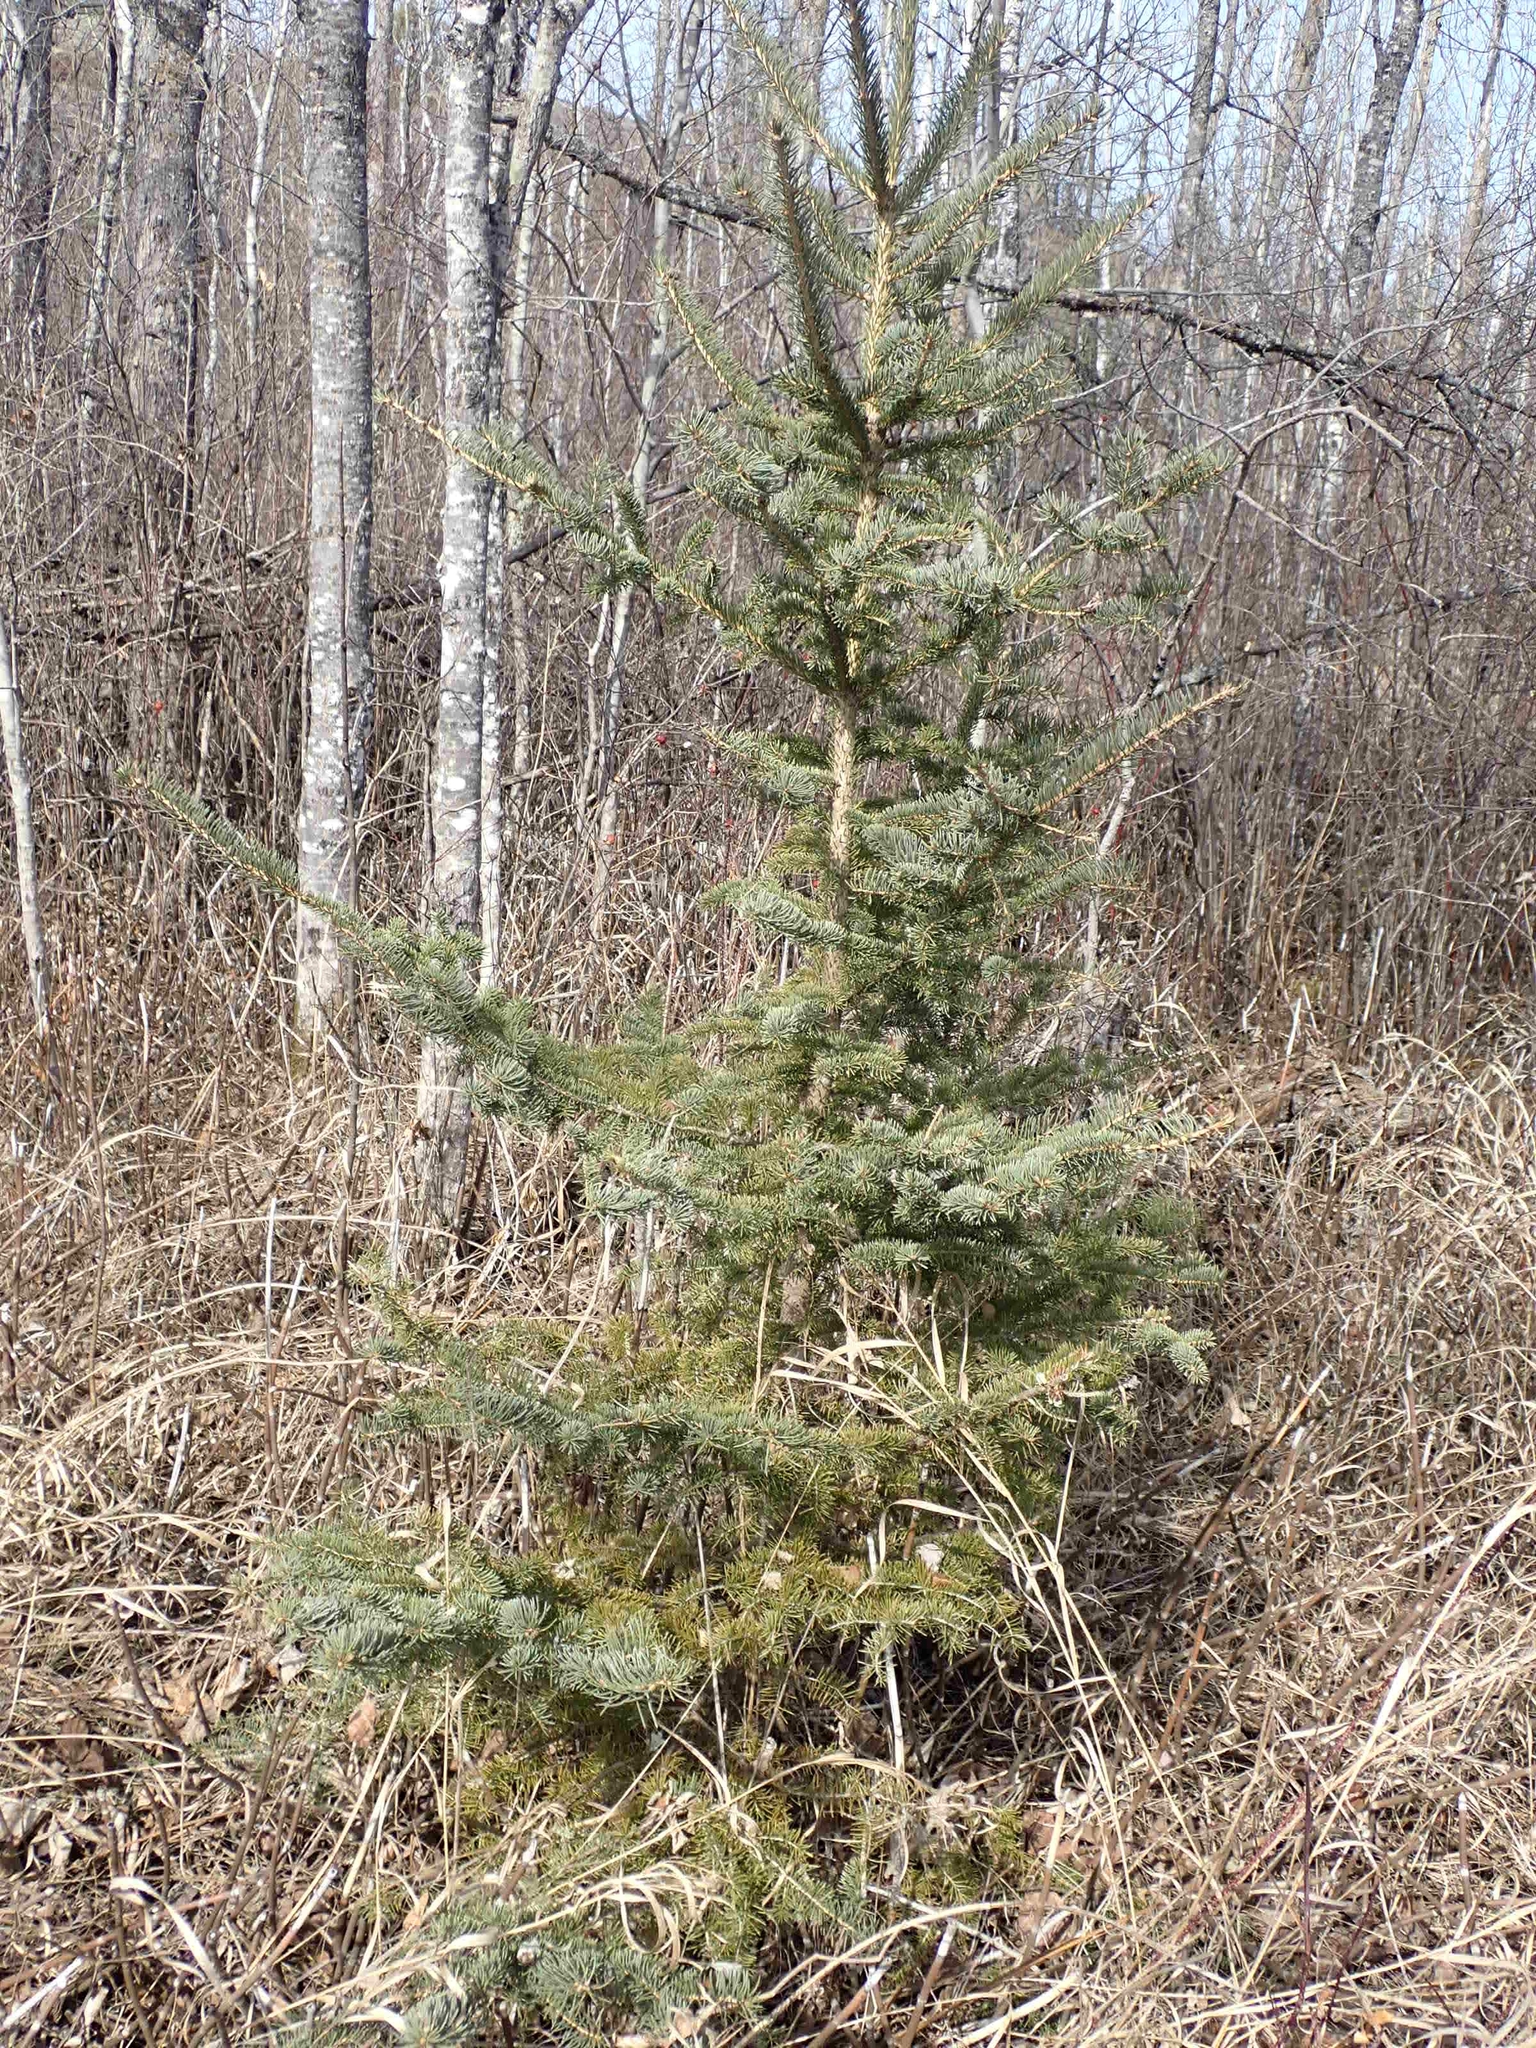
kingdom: Plantae
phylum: Tracheophyta
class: Pinopsida
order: Pinales
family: Pinaceae
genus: Picea
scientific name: Picea glauca
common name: White spruce
